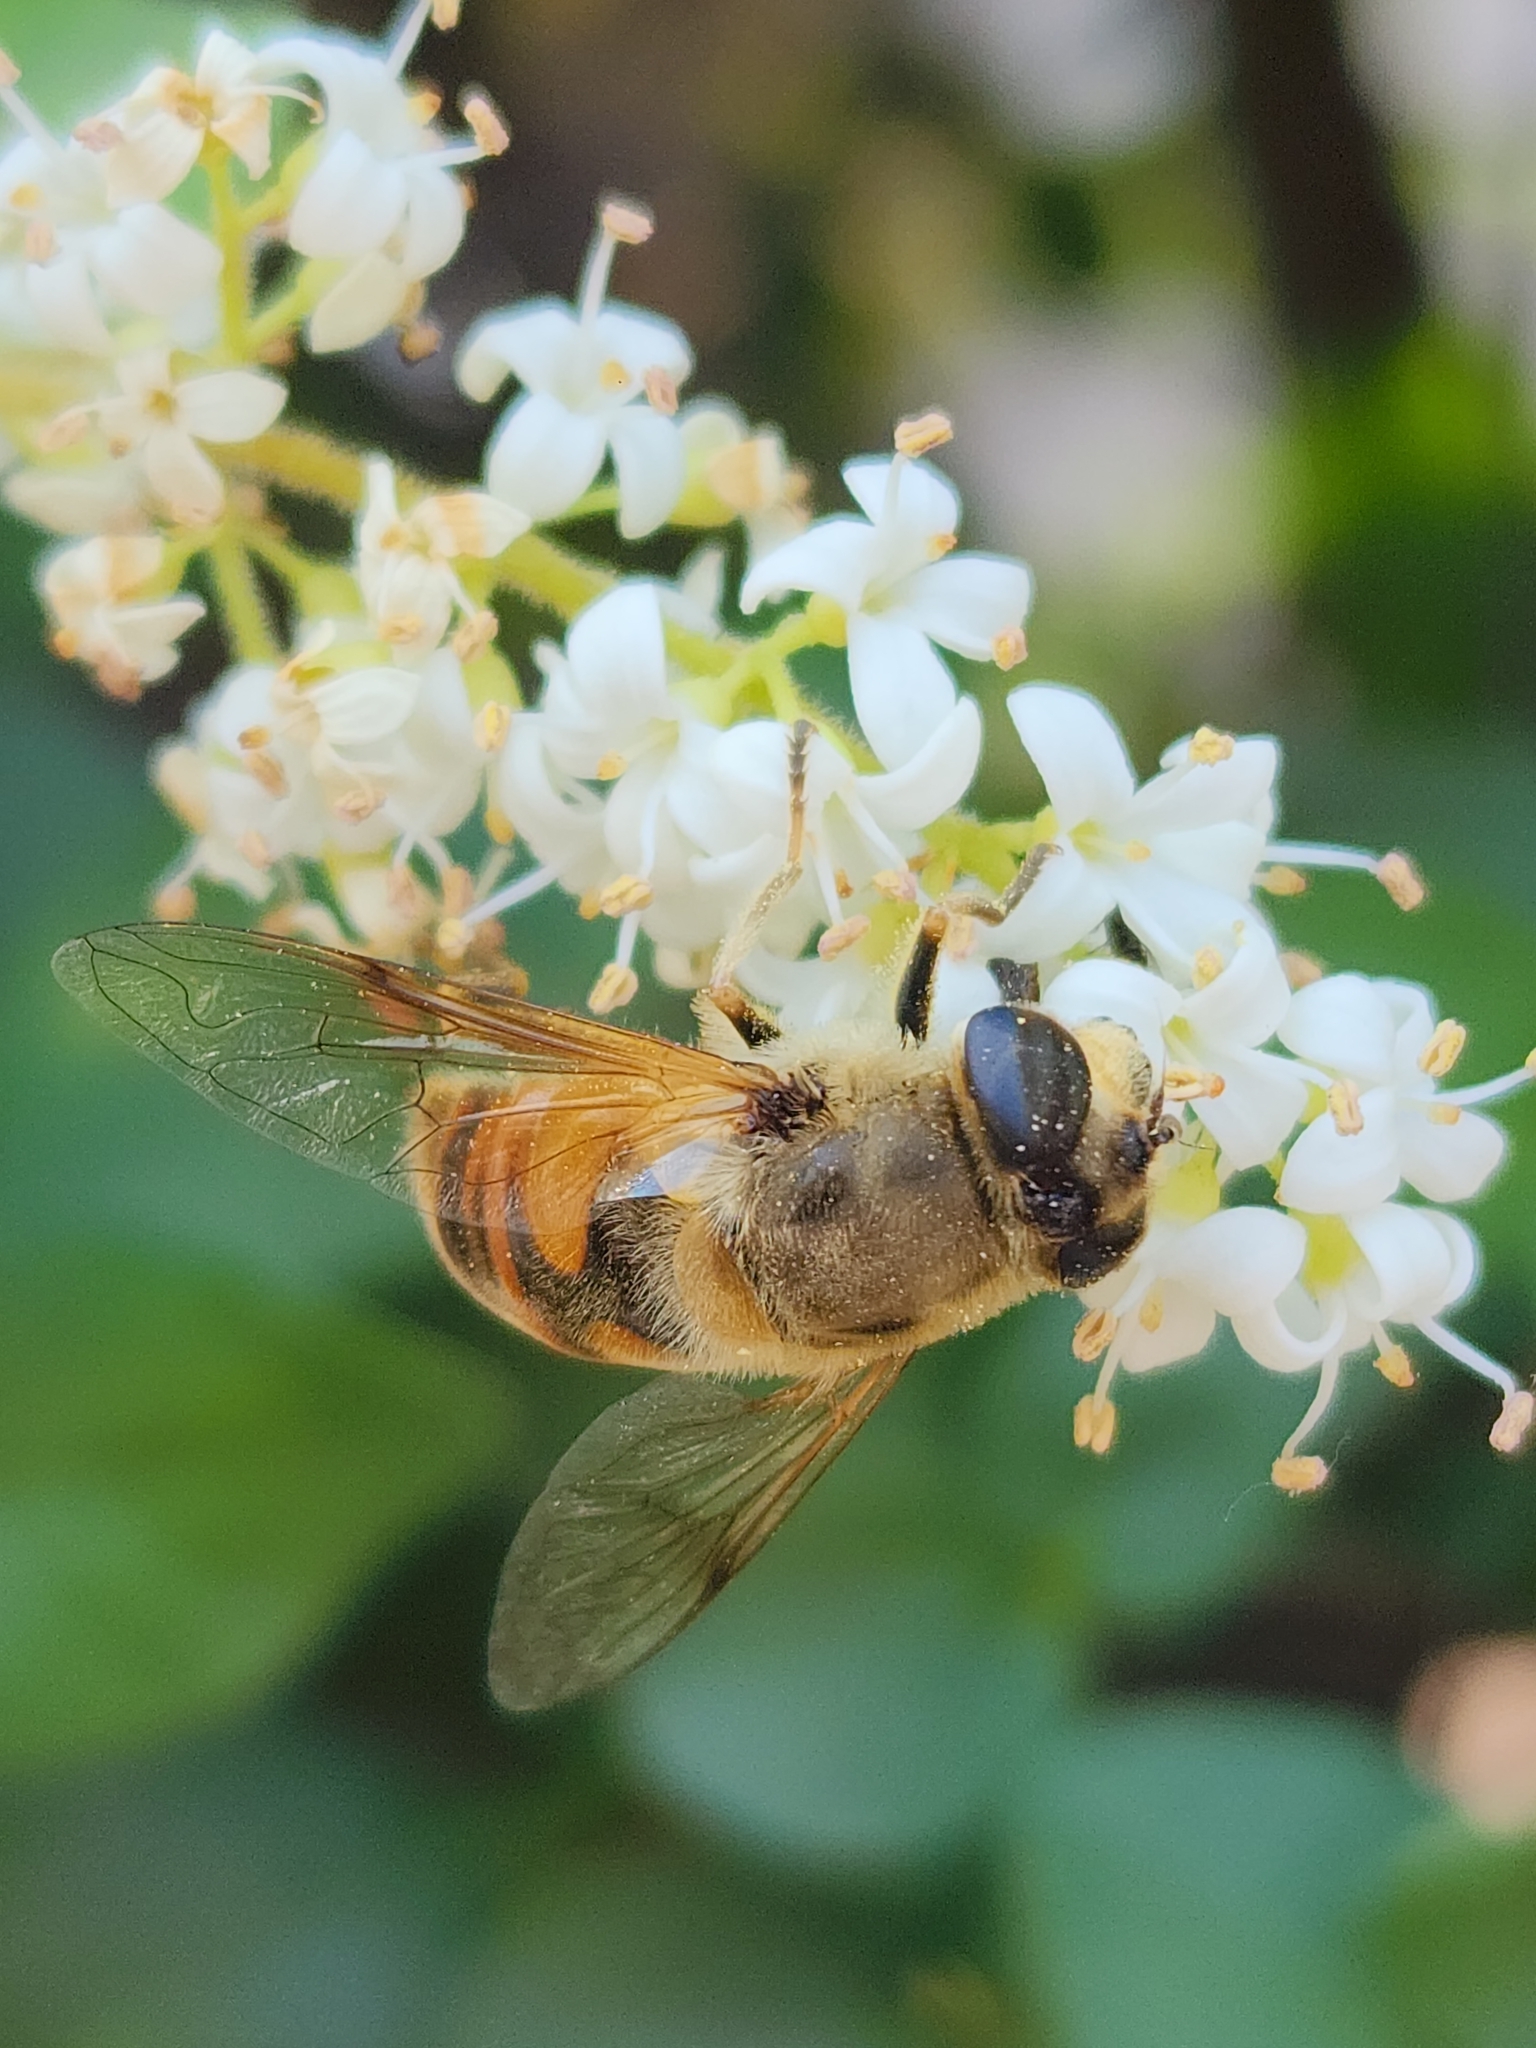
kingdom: Animalia
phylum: Arthropoda
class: Insecta
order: Diptera
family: Syrphidae
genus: Eristalis
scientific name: Eristalis tenax
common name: Drone fly
